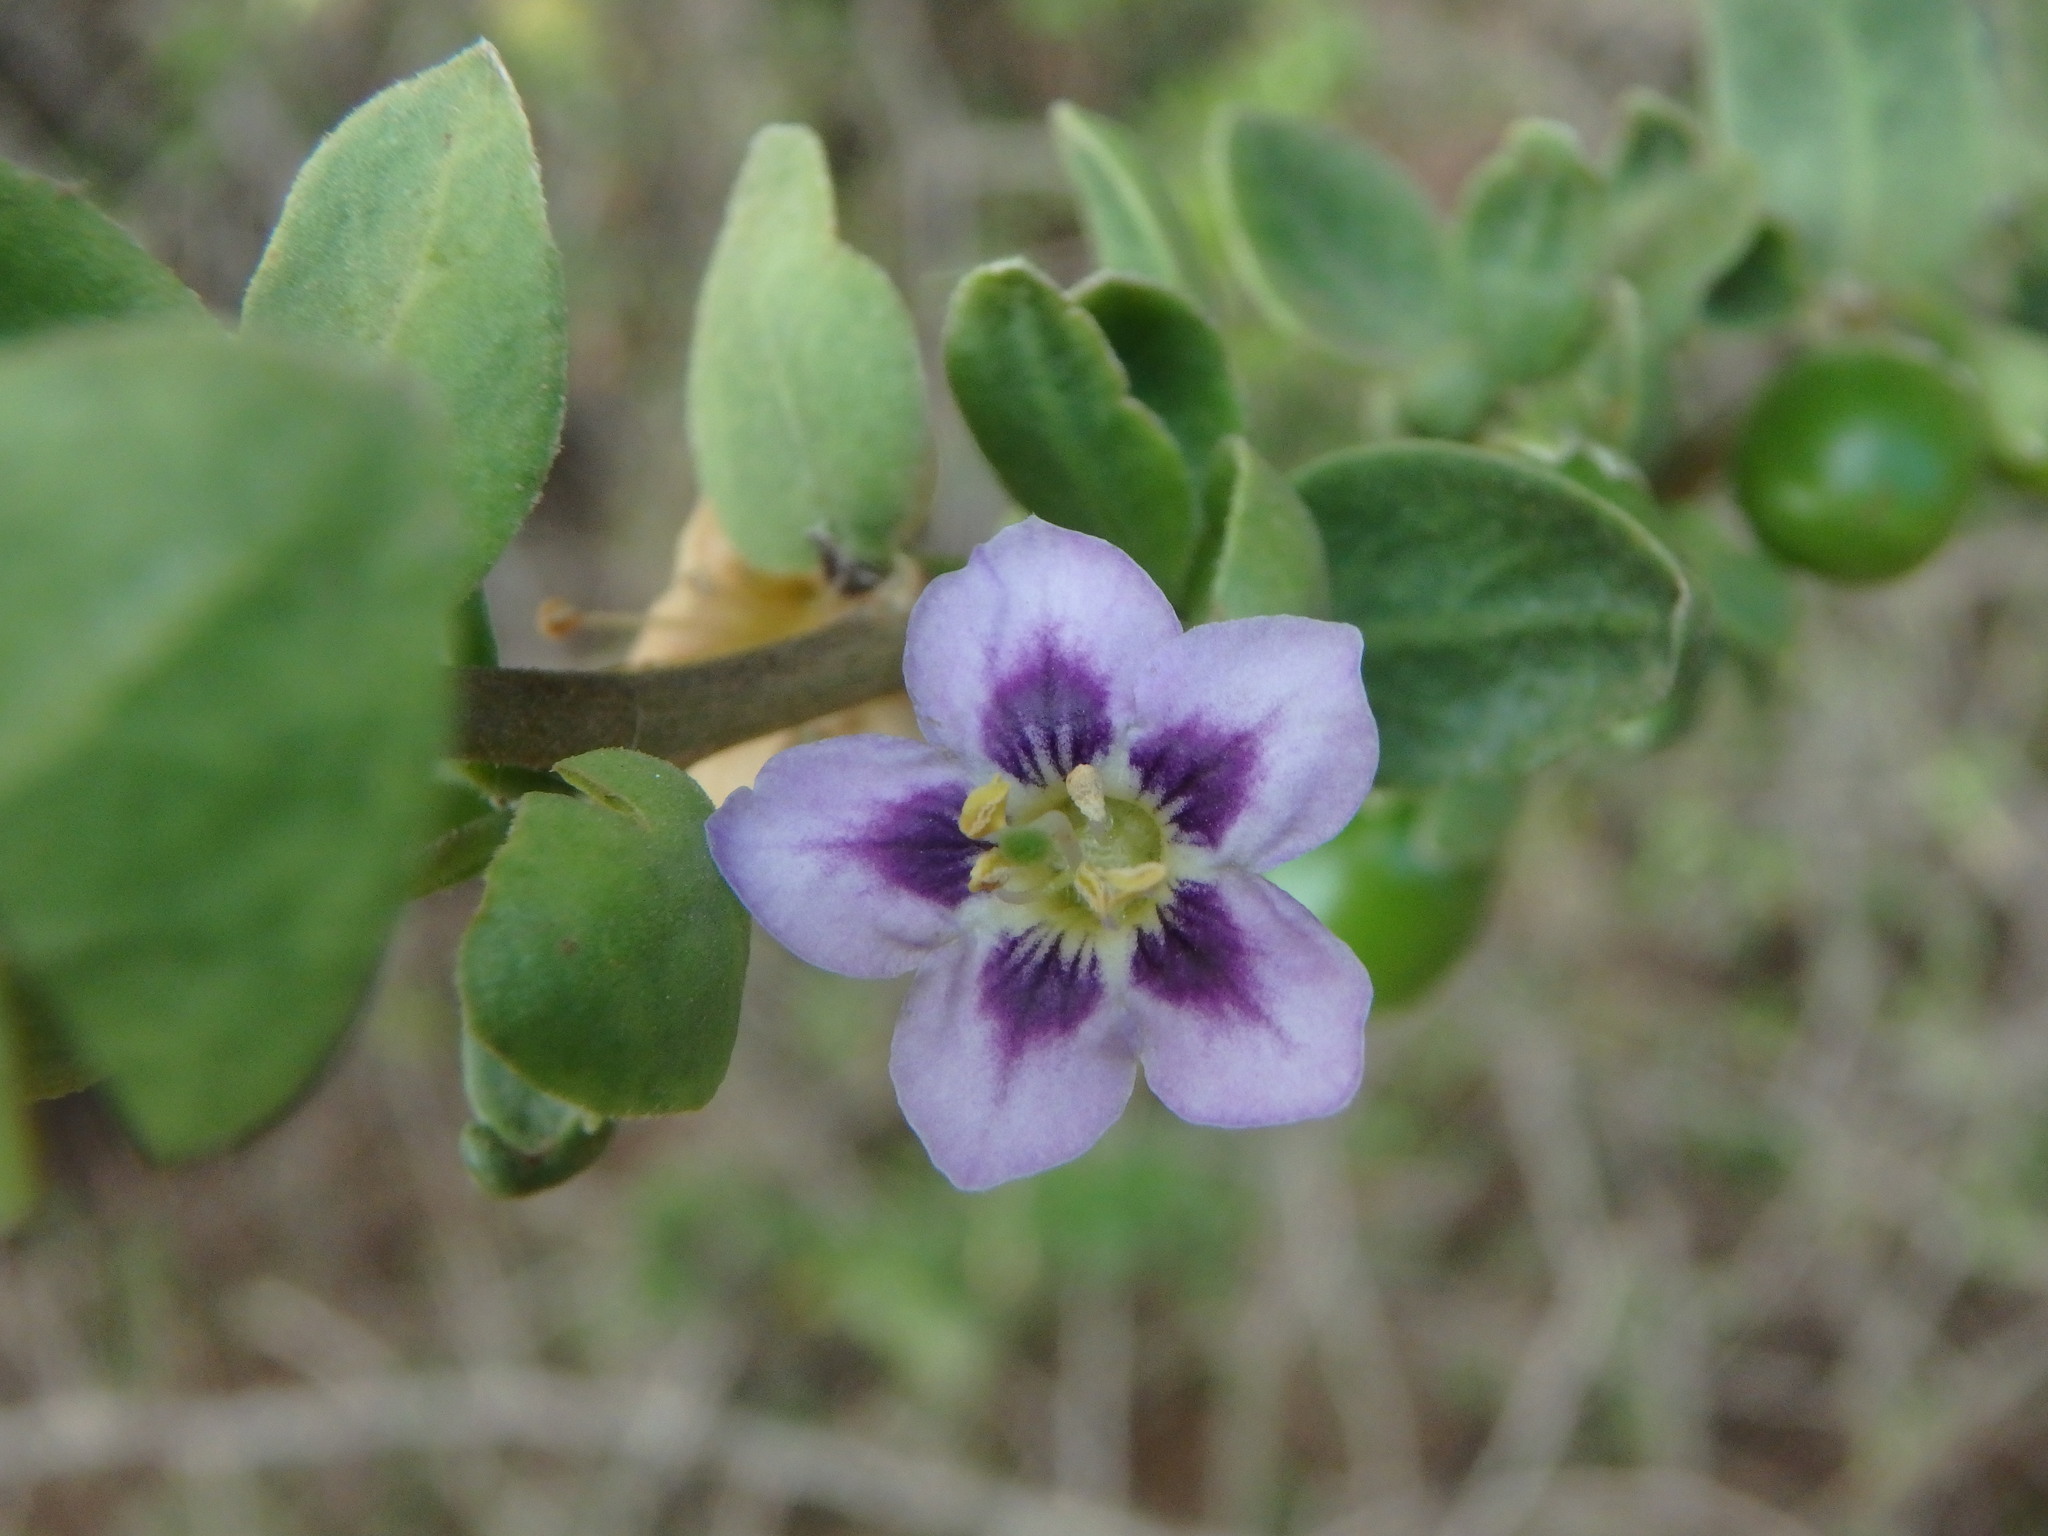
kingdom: Plantae
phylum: Tracheophyta
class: Magnoliopsida
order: Solanales
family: Solanaceae
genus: Lycium
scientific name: Lycium ferocissimum
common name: African boxthorn
